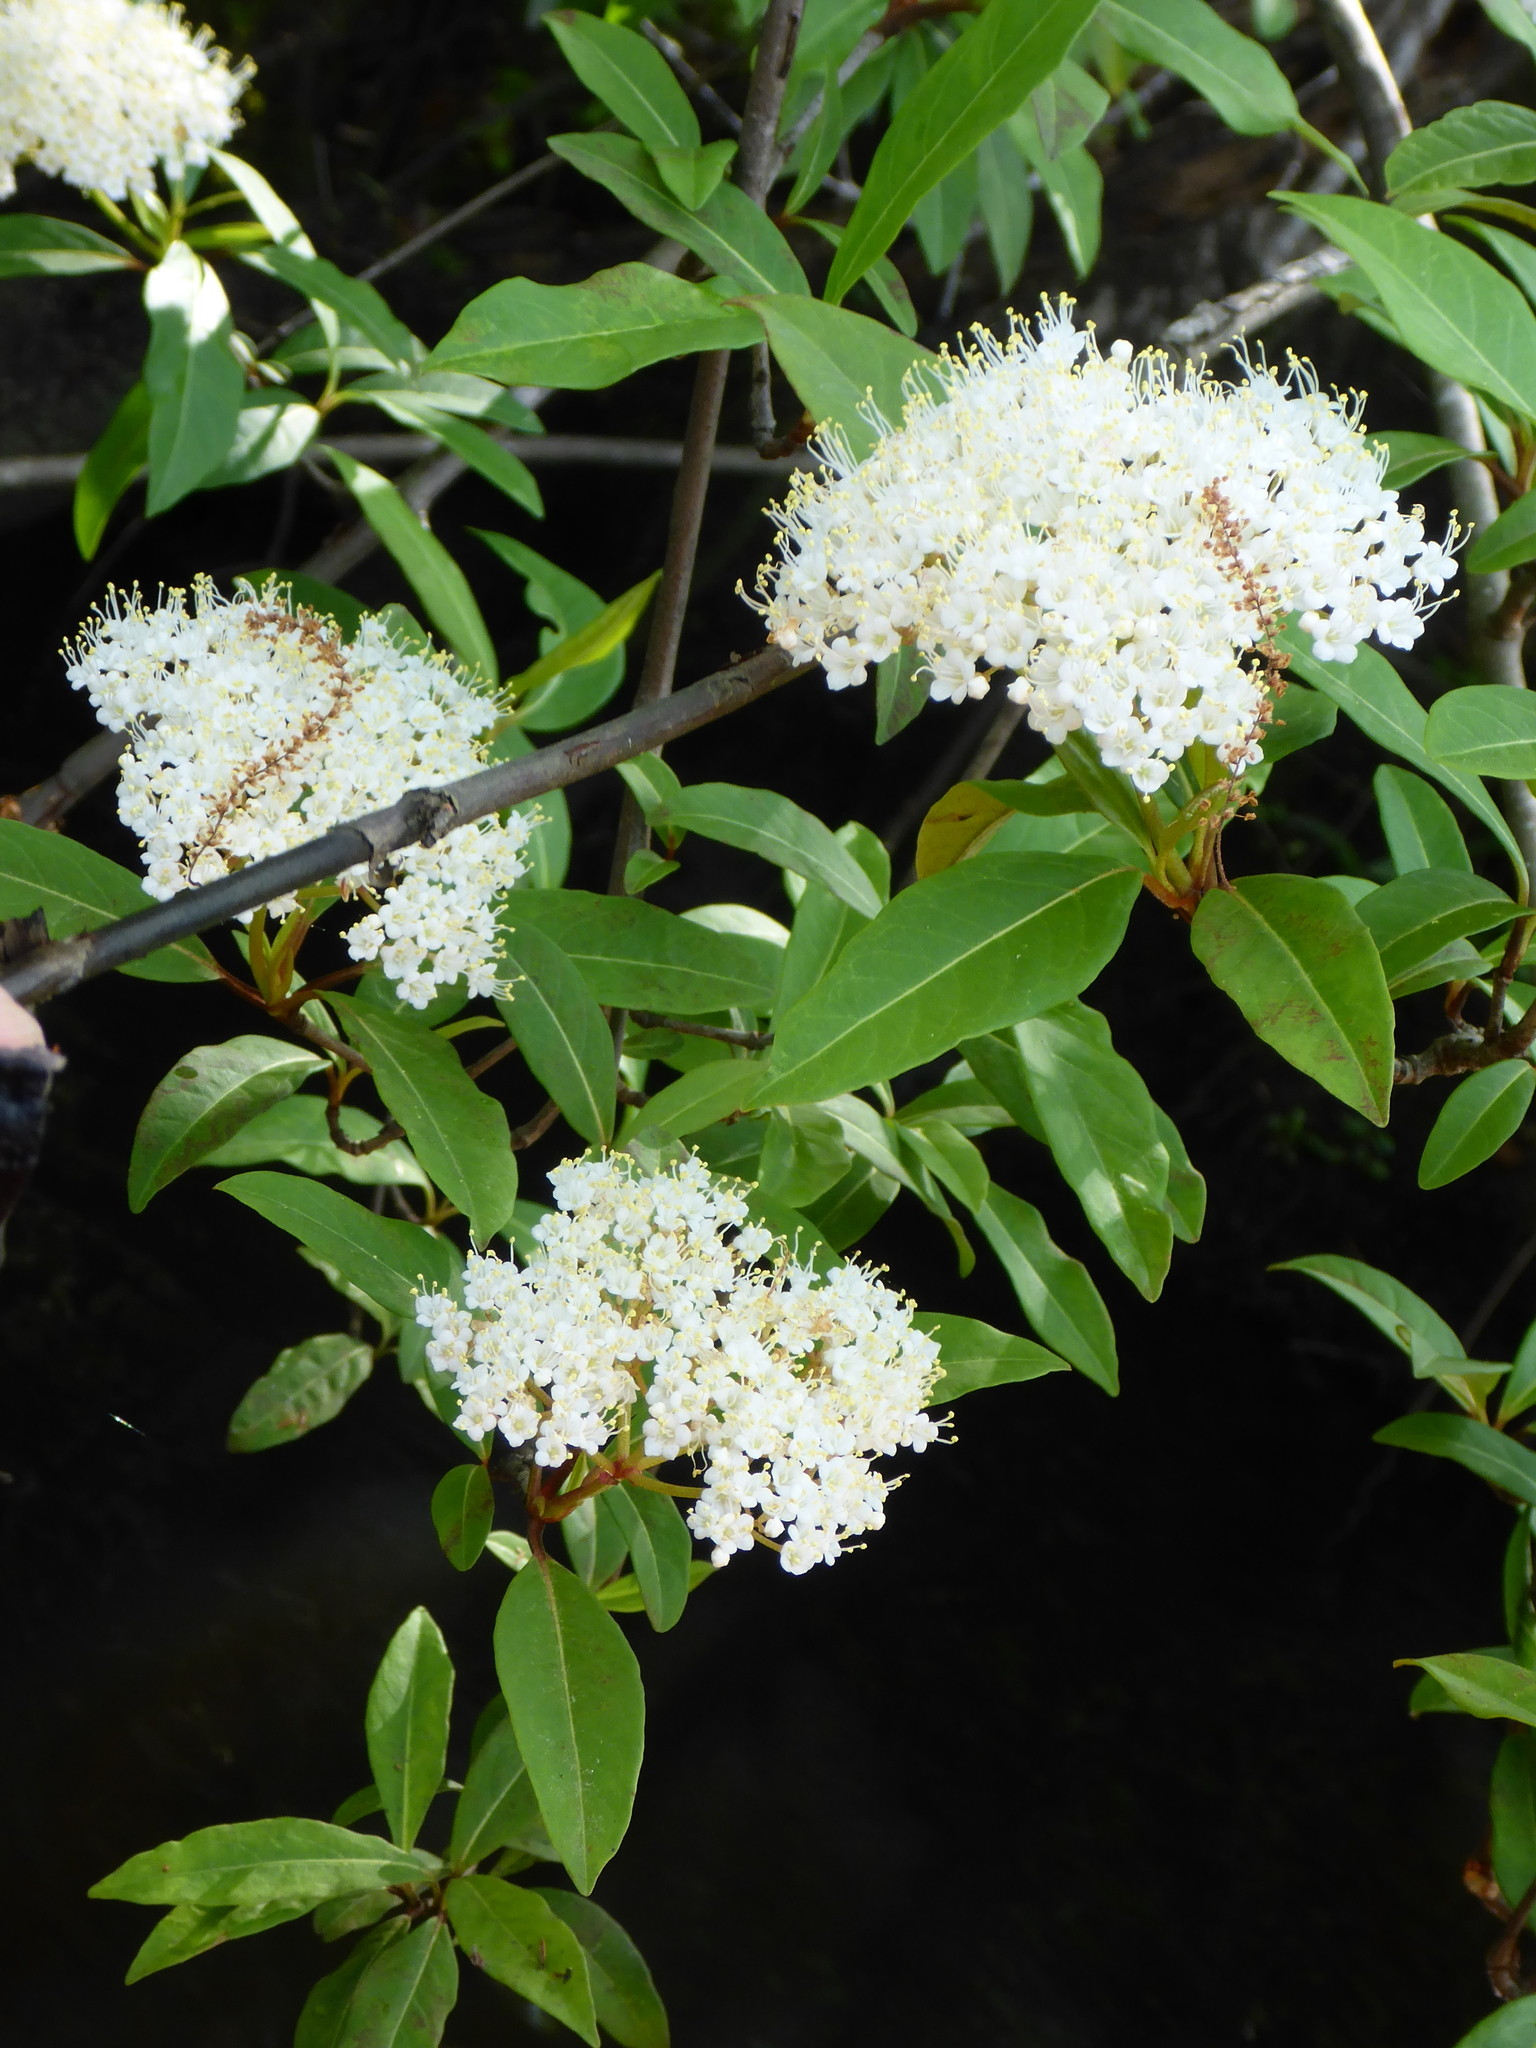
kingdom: Plantae
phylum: Tracheophyta
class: Magnoliopsida
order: Dipsacales
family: Viburnaceae
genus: Viburnum
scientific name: Viburnum nudum
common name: Possum haw
